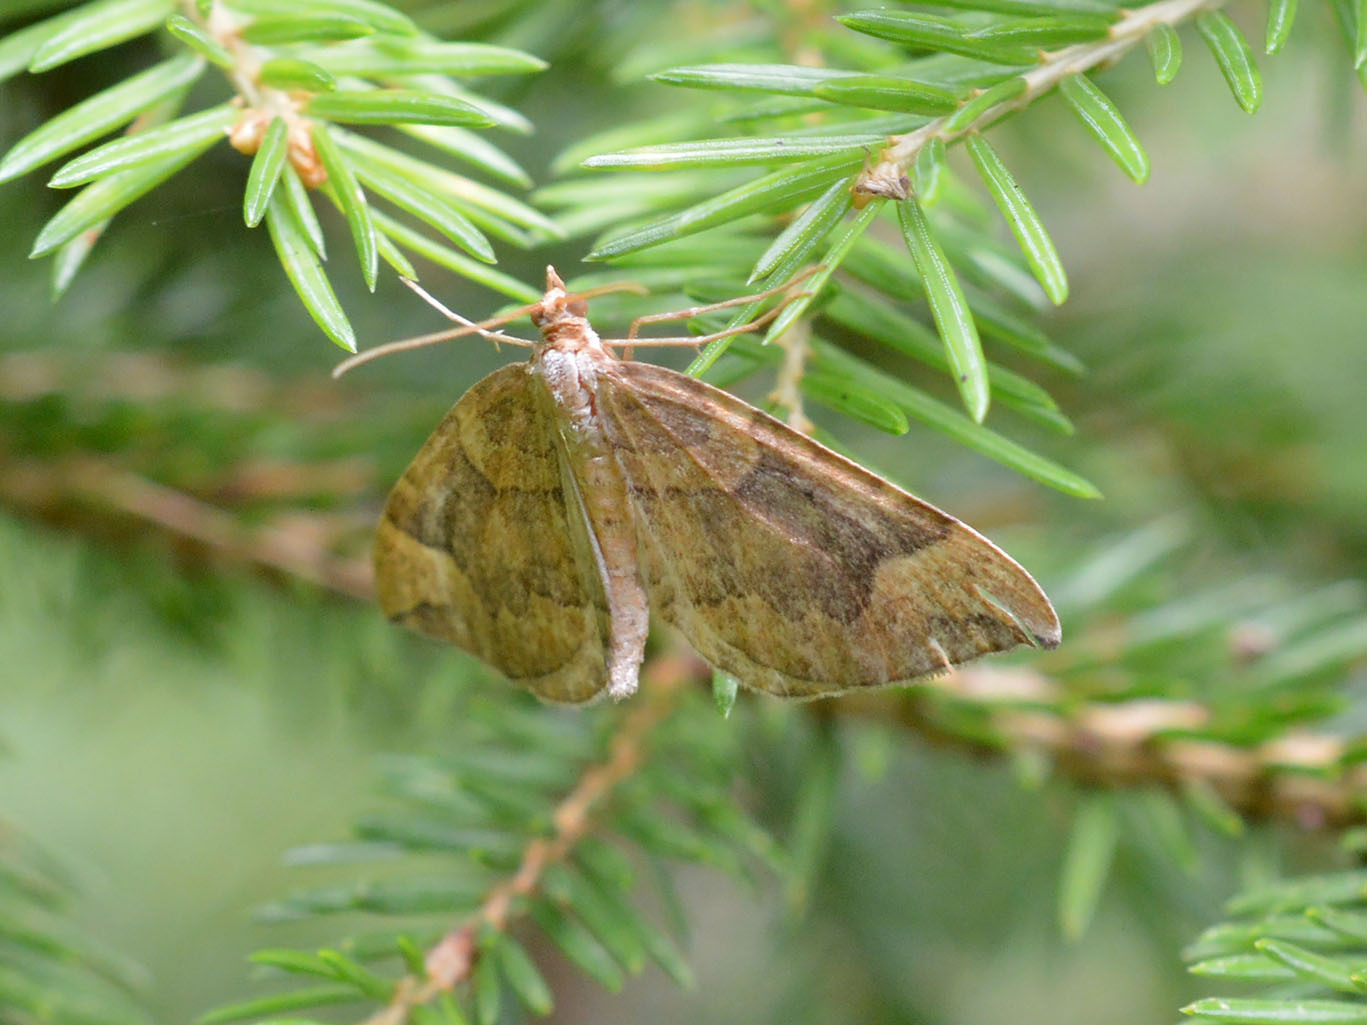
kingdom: Animalia
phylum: Arthropoda
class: Insecta
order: Lepidoptera
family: Geometridae
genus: Eulithis
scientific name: Eulithis populata
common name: Northern spinach
